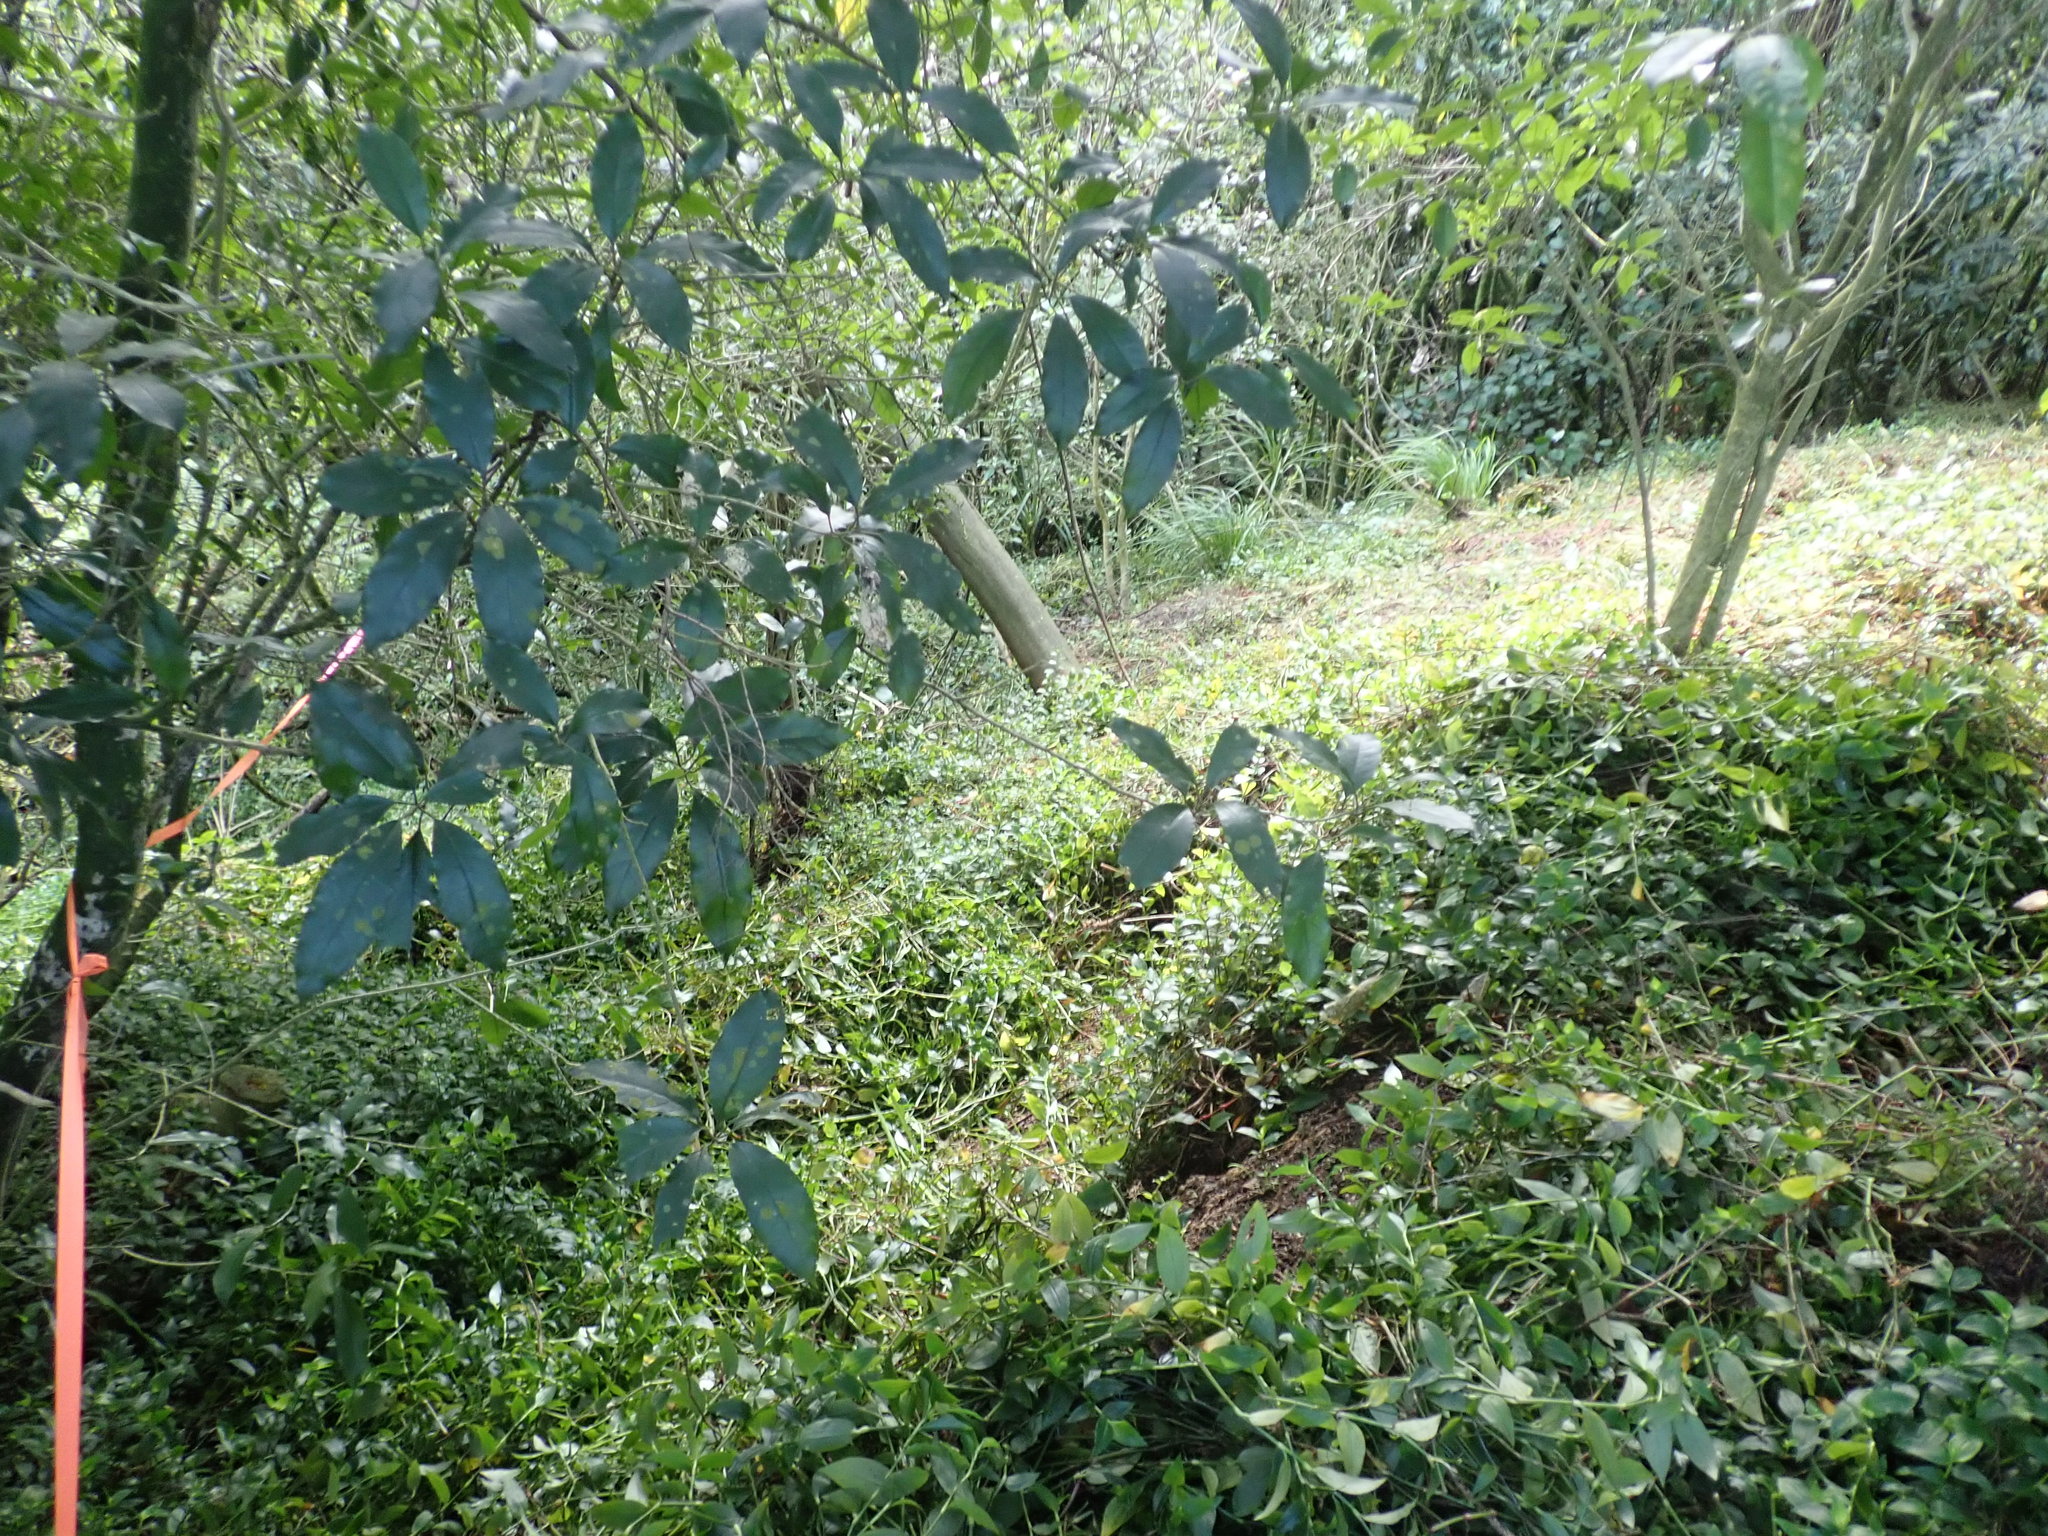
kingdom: Plantae
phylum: Tracheophyta
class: Liliopsida
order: Commelinales
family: Commelinaceae
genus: Tradescantia
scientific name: Tradescantia fluminensis
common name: Wandering-jew
